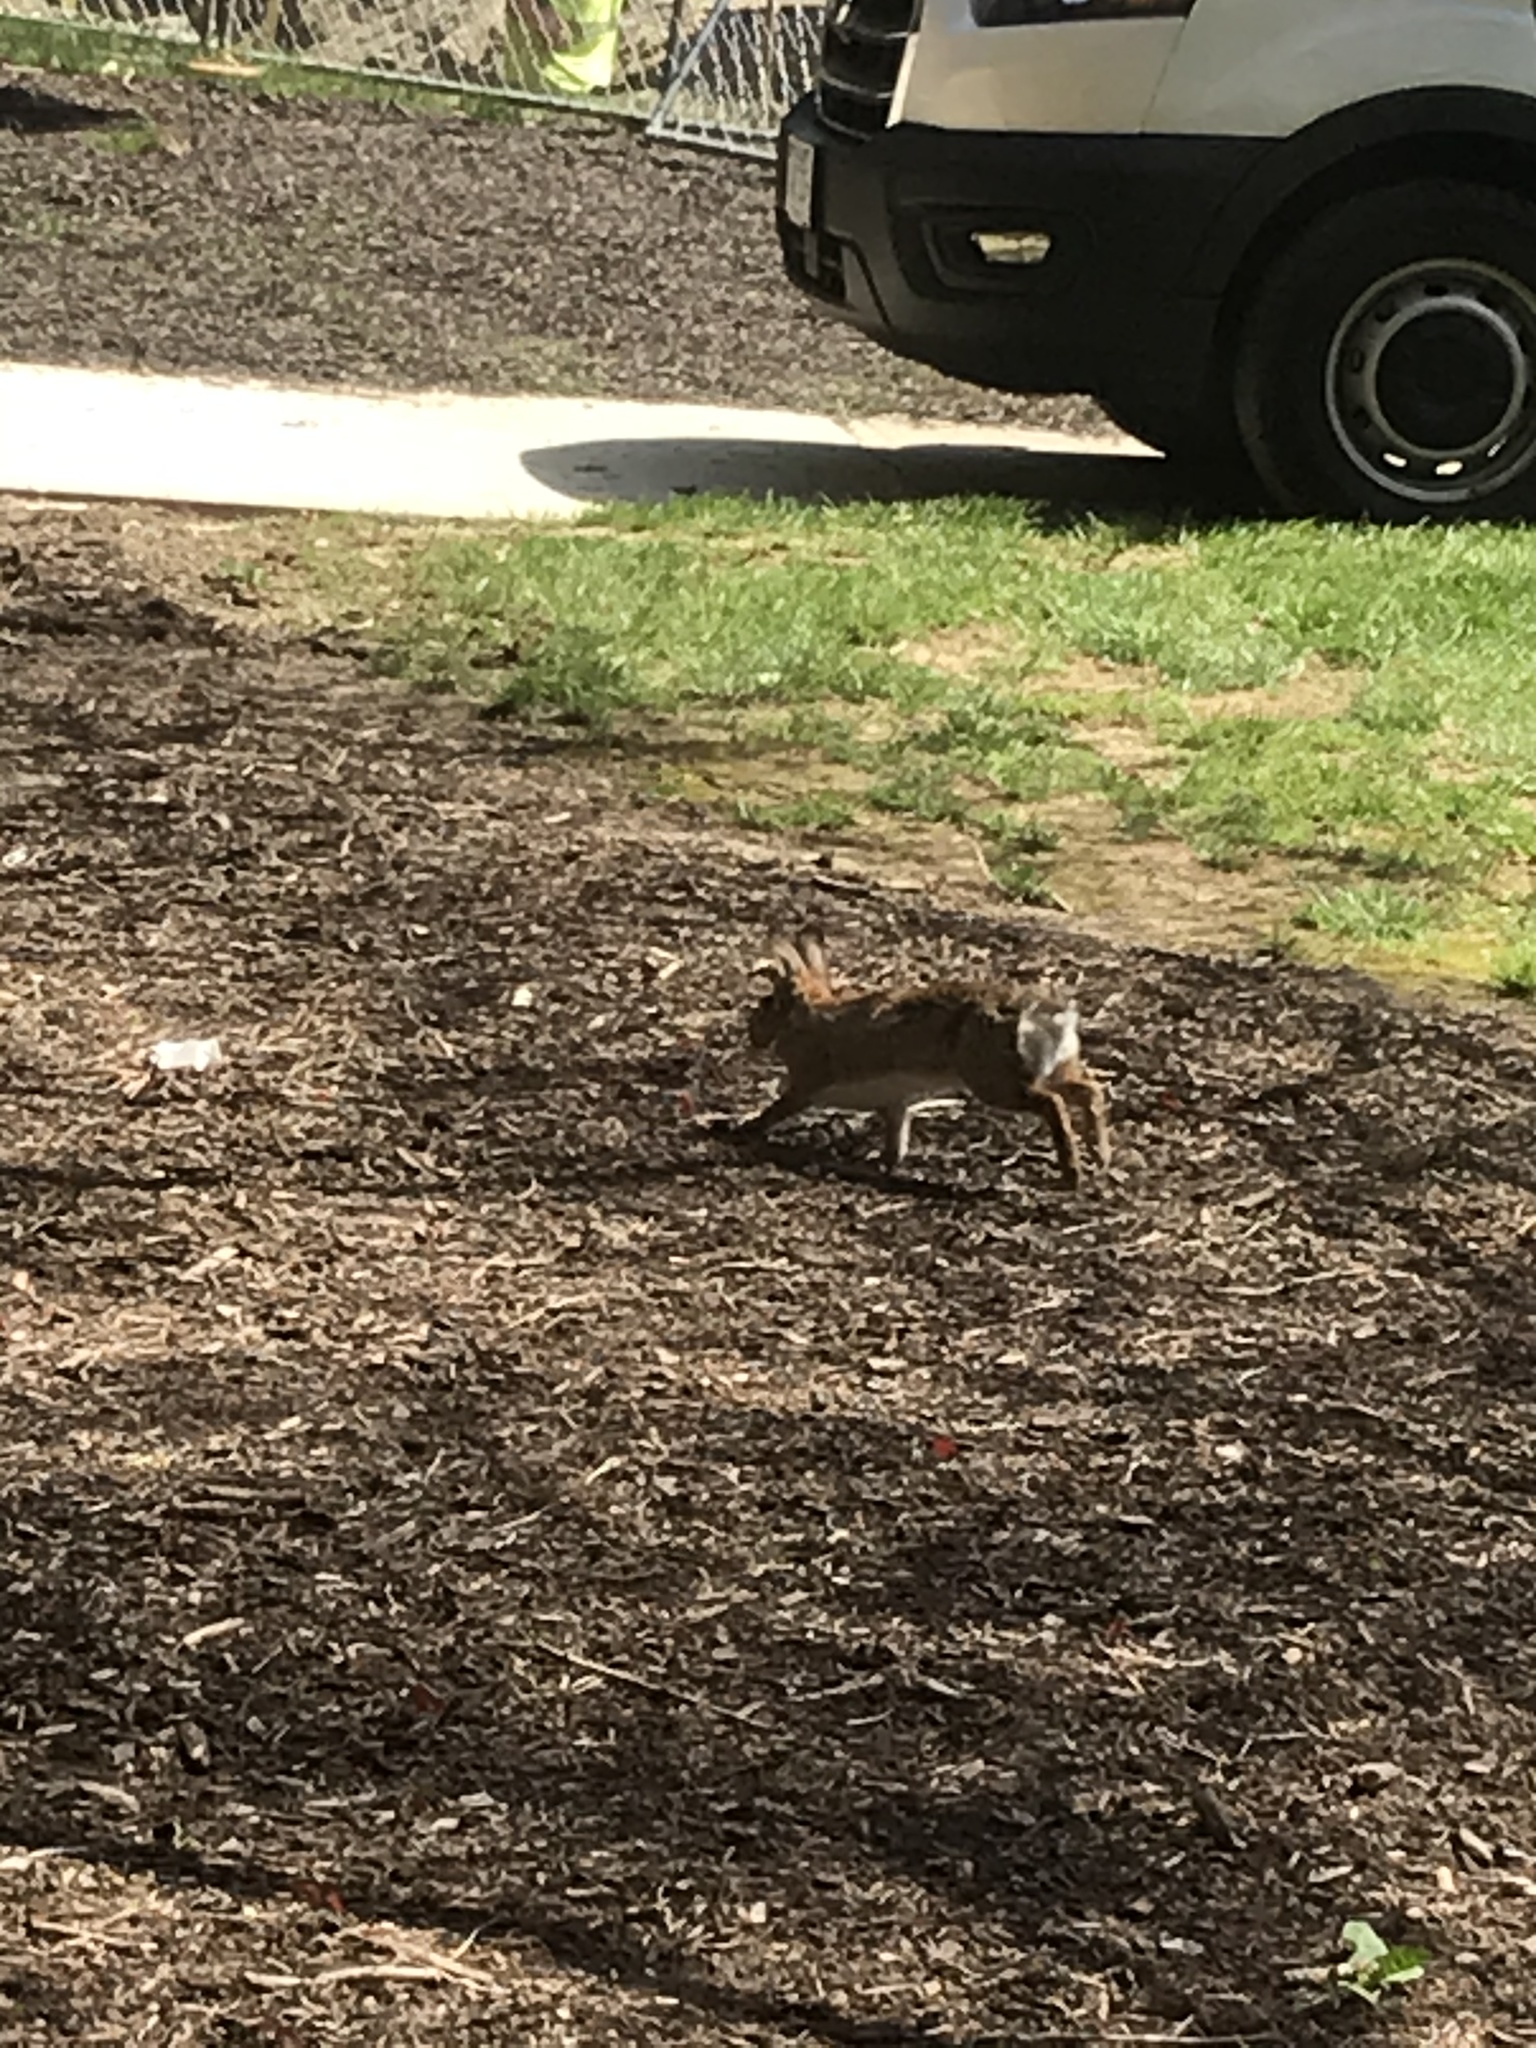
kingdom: Animalia
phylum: Chordata
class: Mammalia
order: Lagomorpha
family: Leporidae
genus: Sylvilagus
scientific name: Sylvilagus floridanus
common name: Eastern cottontail
